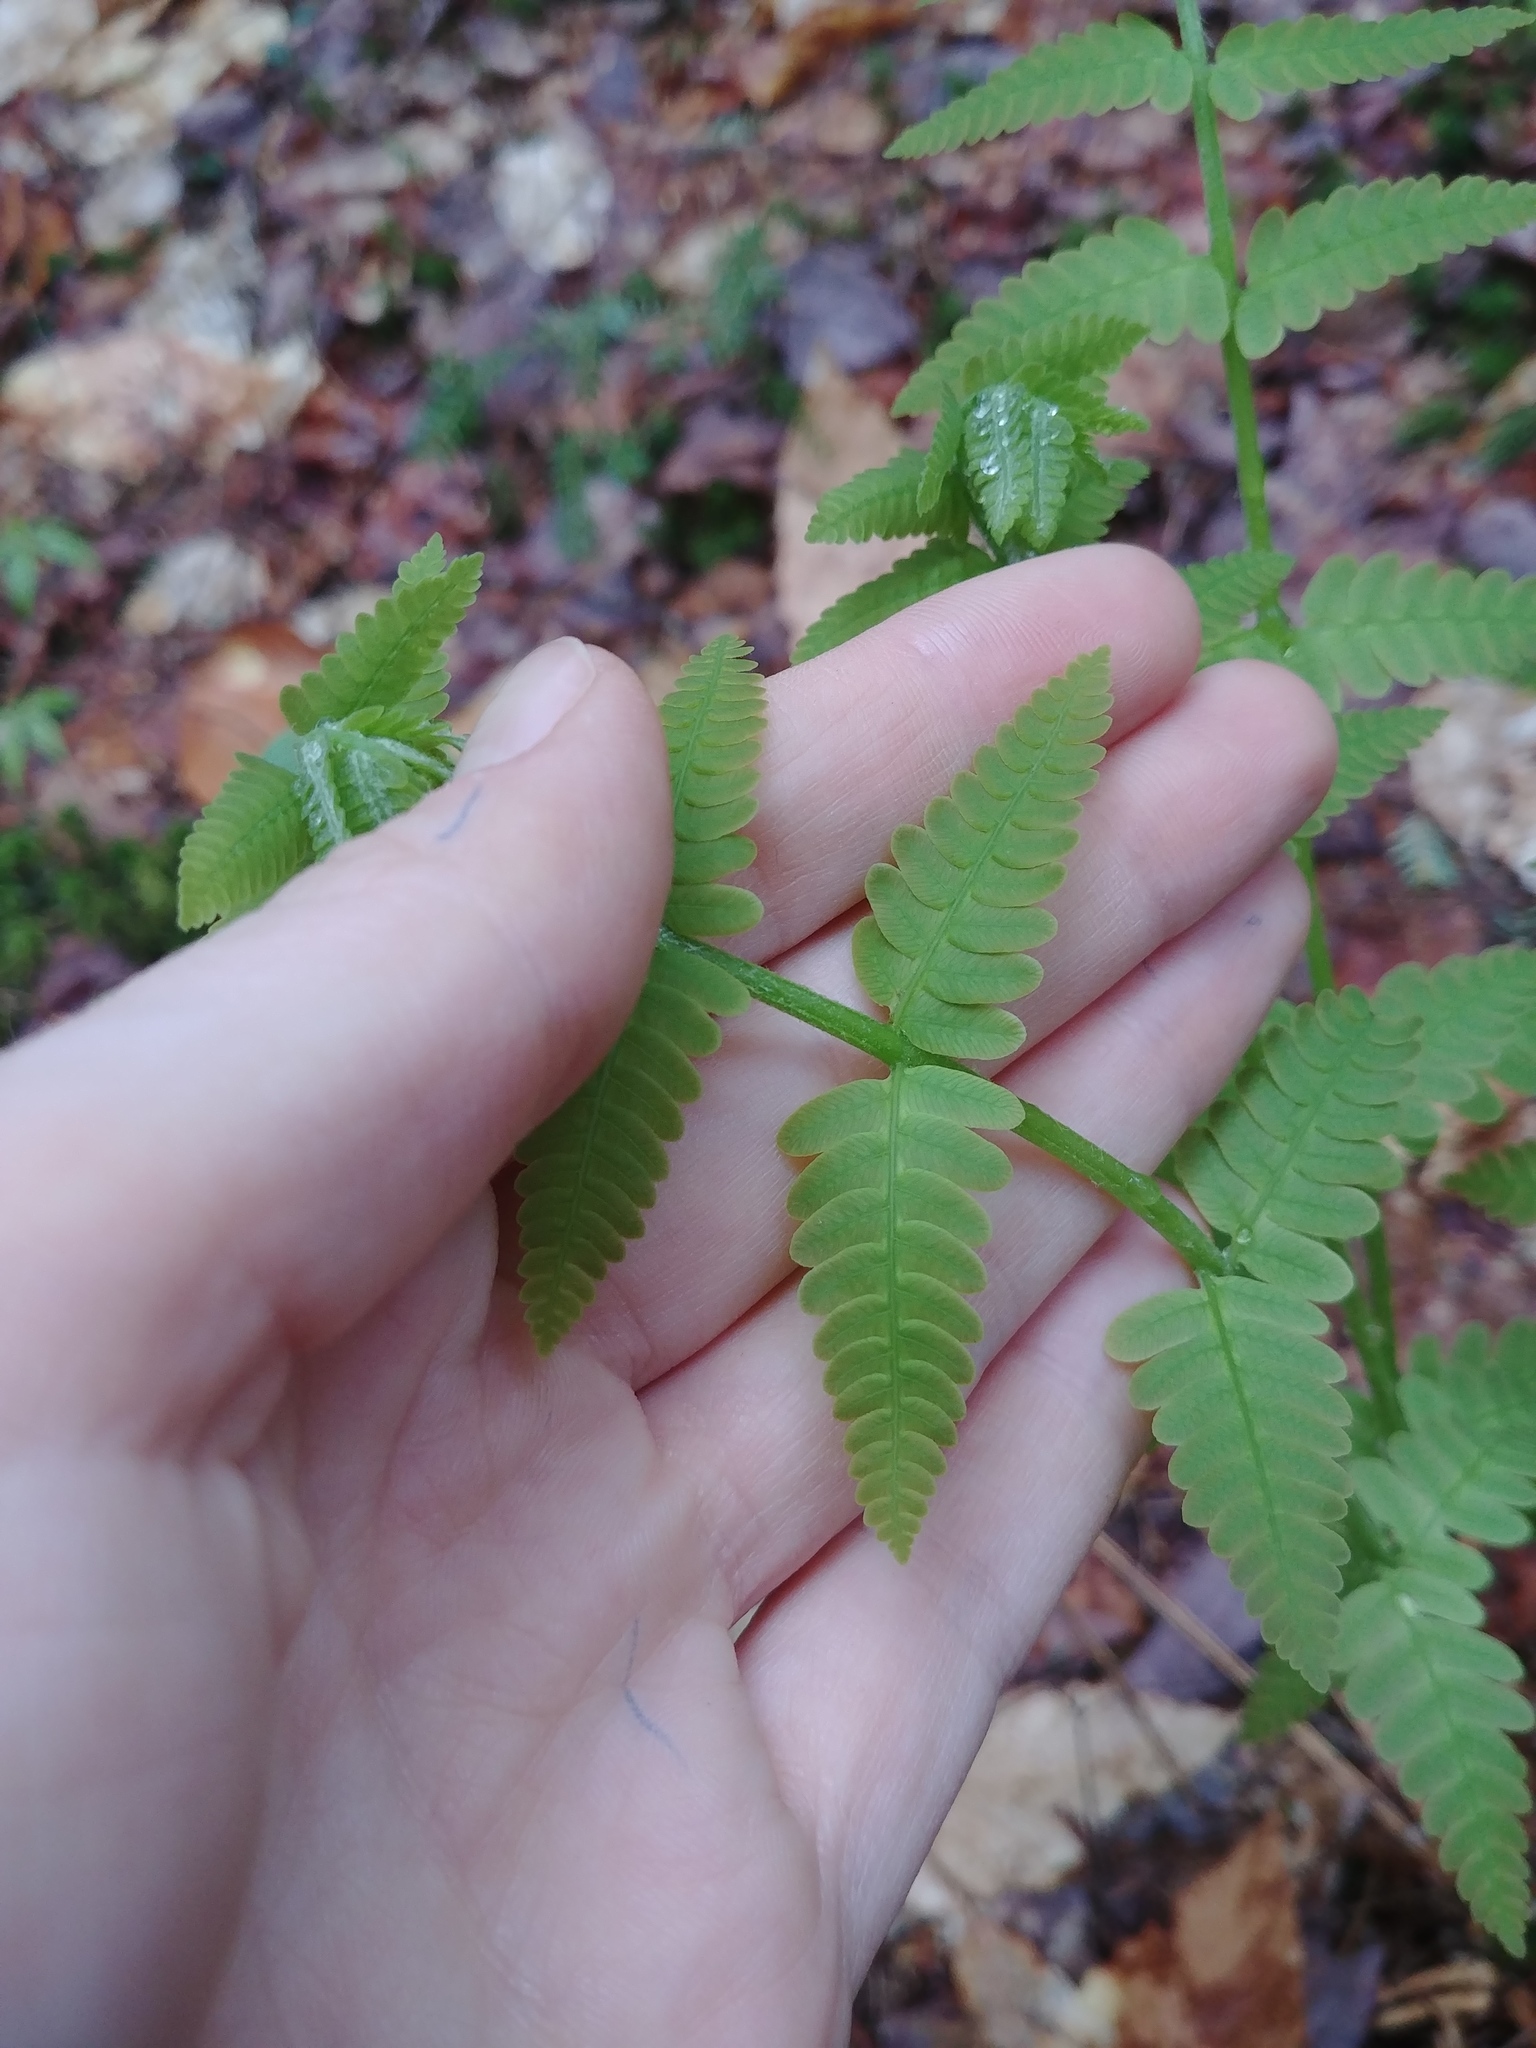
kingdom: Plantae
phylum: Tracheophyta
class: Polypodiopsida
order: Osmundales
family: Osmundaceae
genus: Claytosmunda
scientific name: Claytosmunda claytoniana
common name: Clayton's fern
